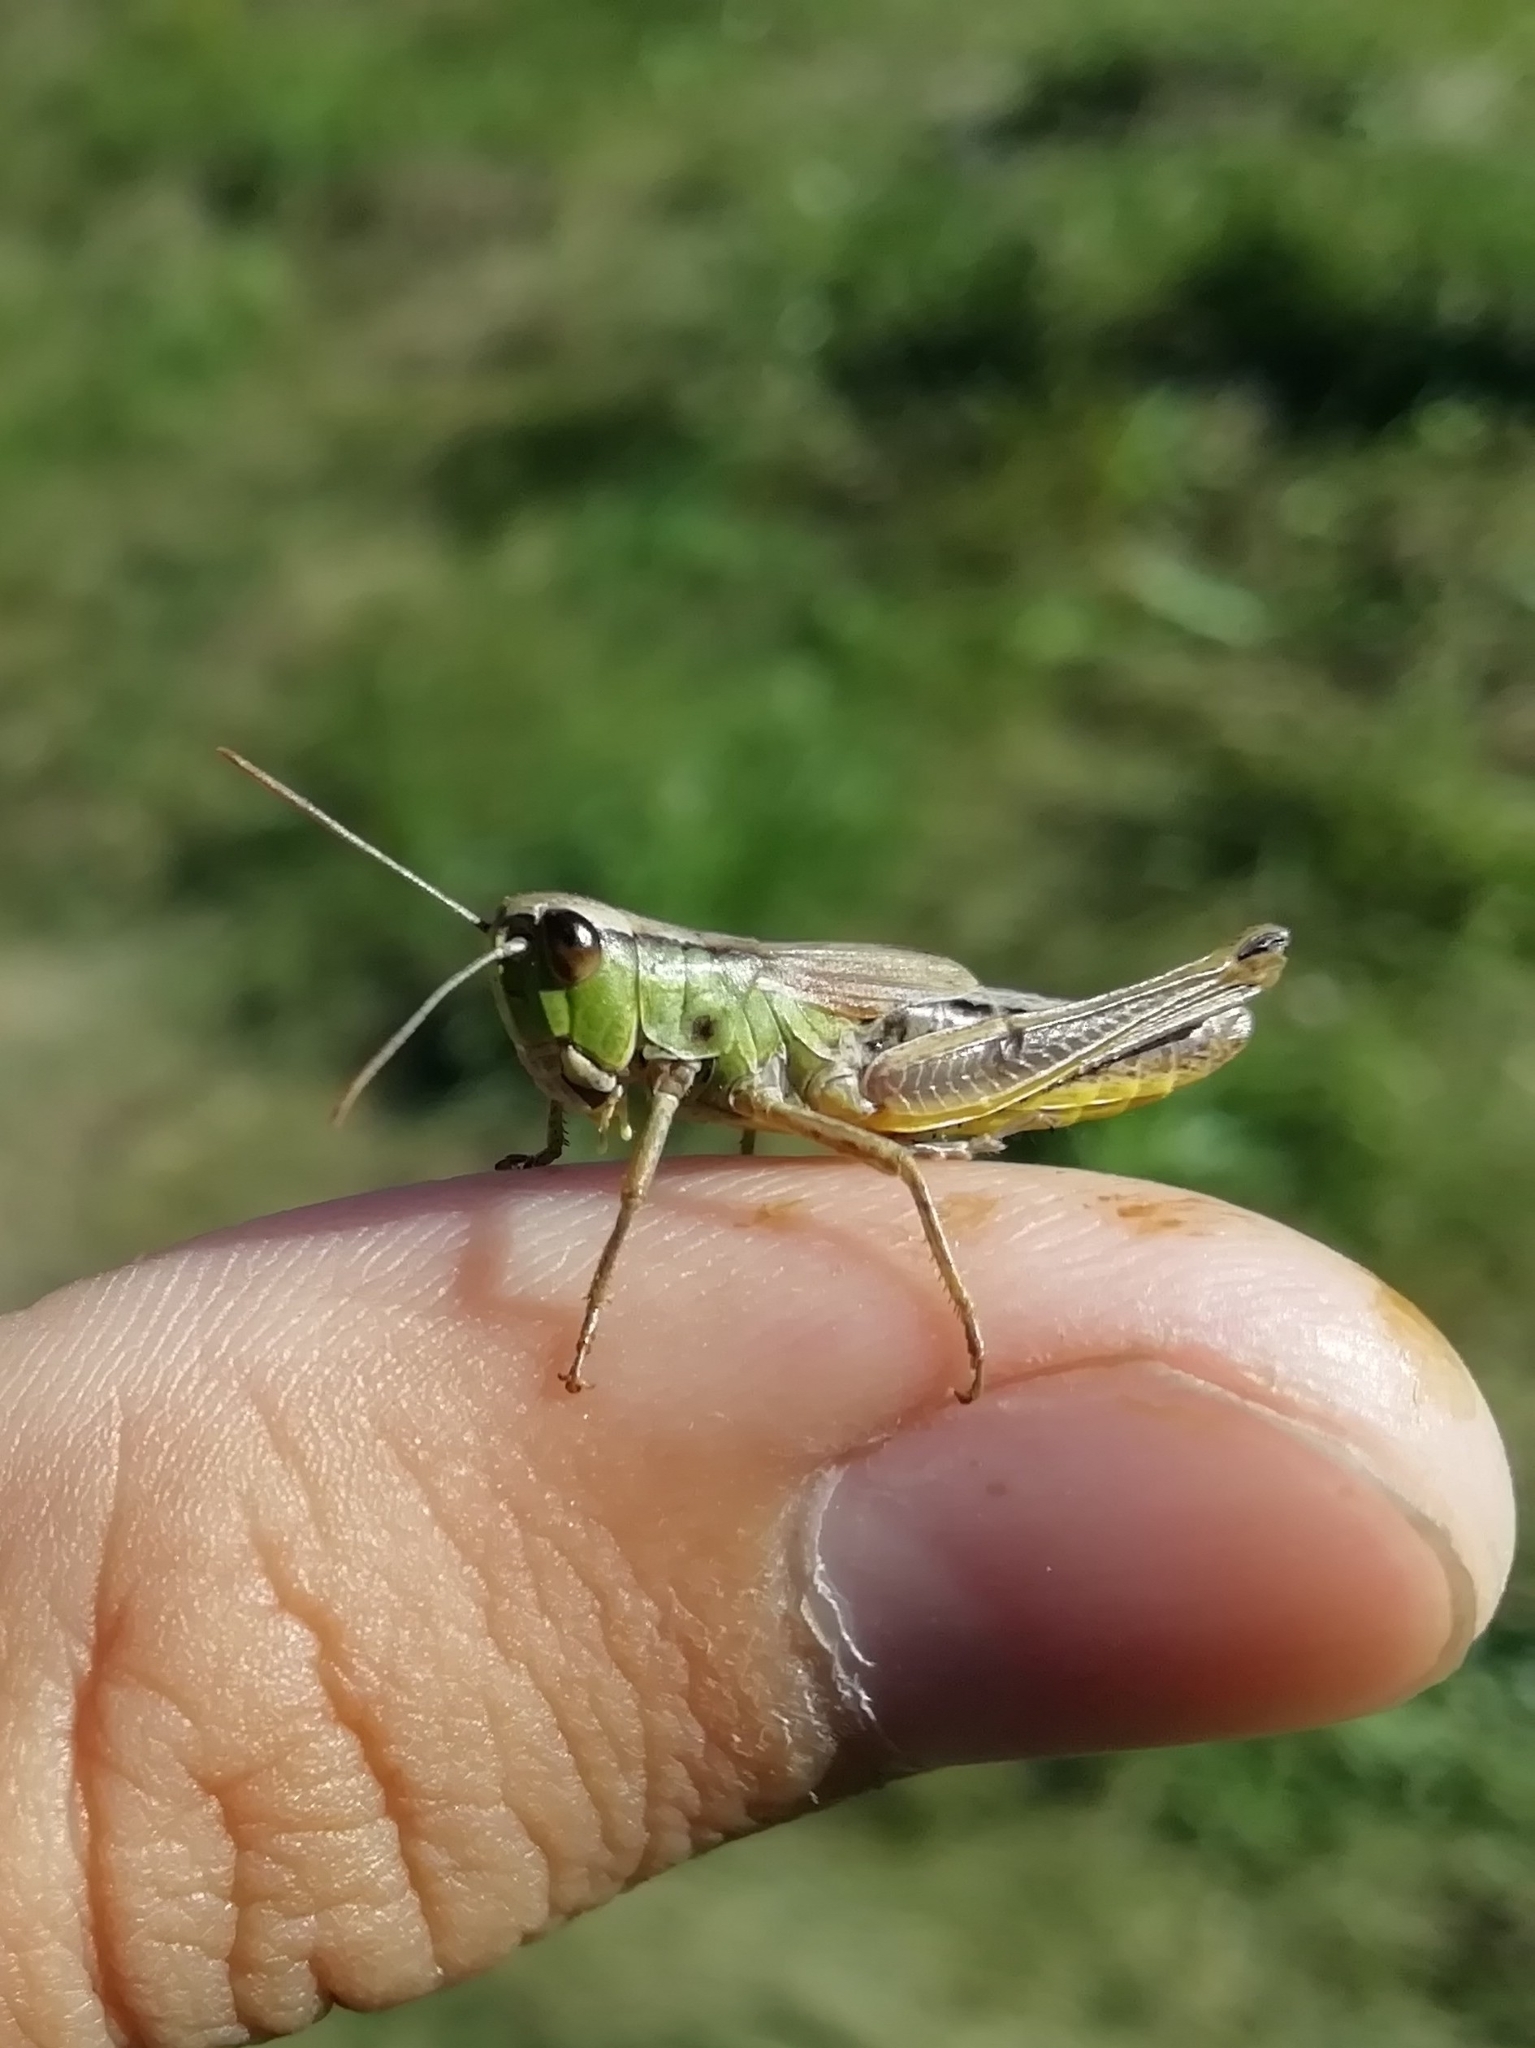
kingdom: Animalia
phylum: Arthropoda
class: Insecta
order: Orthoptera
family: Acrididae
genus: Pseudochorthippus
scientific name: Pseudochorthippus parallelus
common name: Meadow grasshopper
